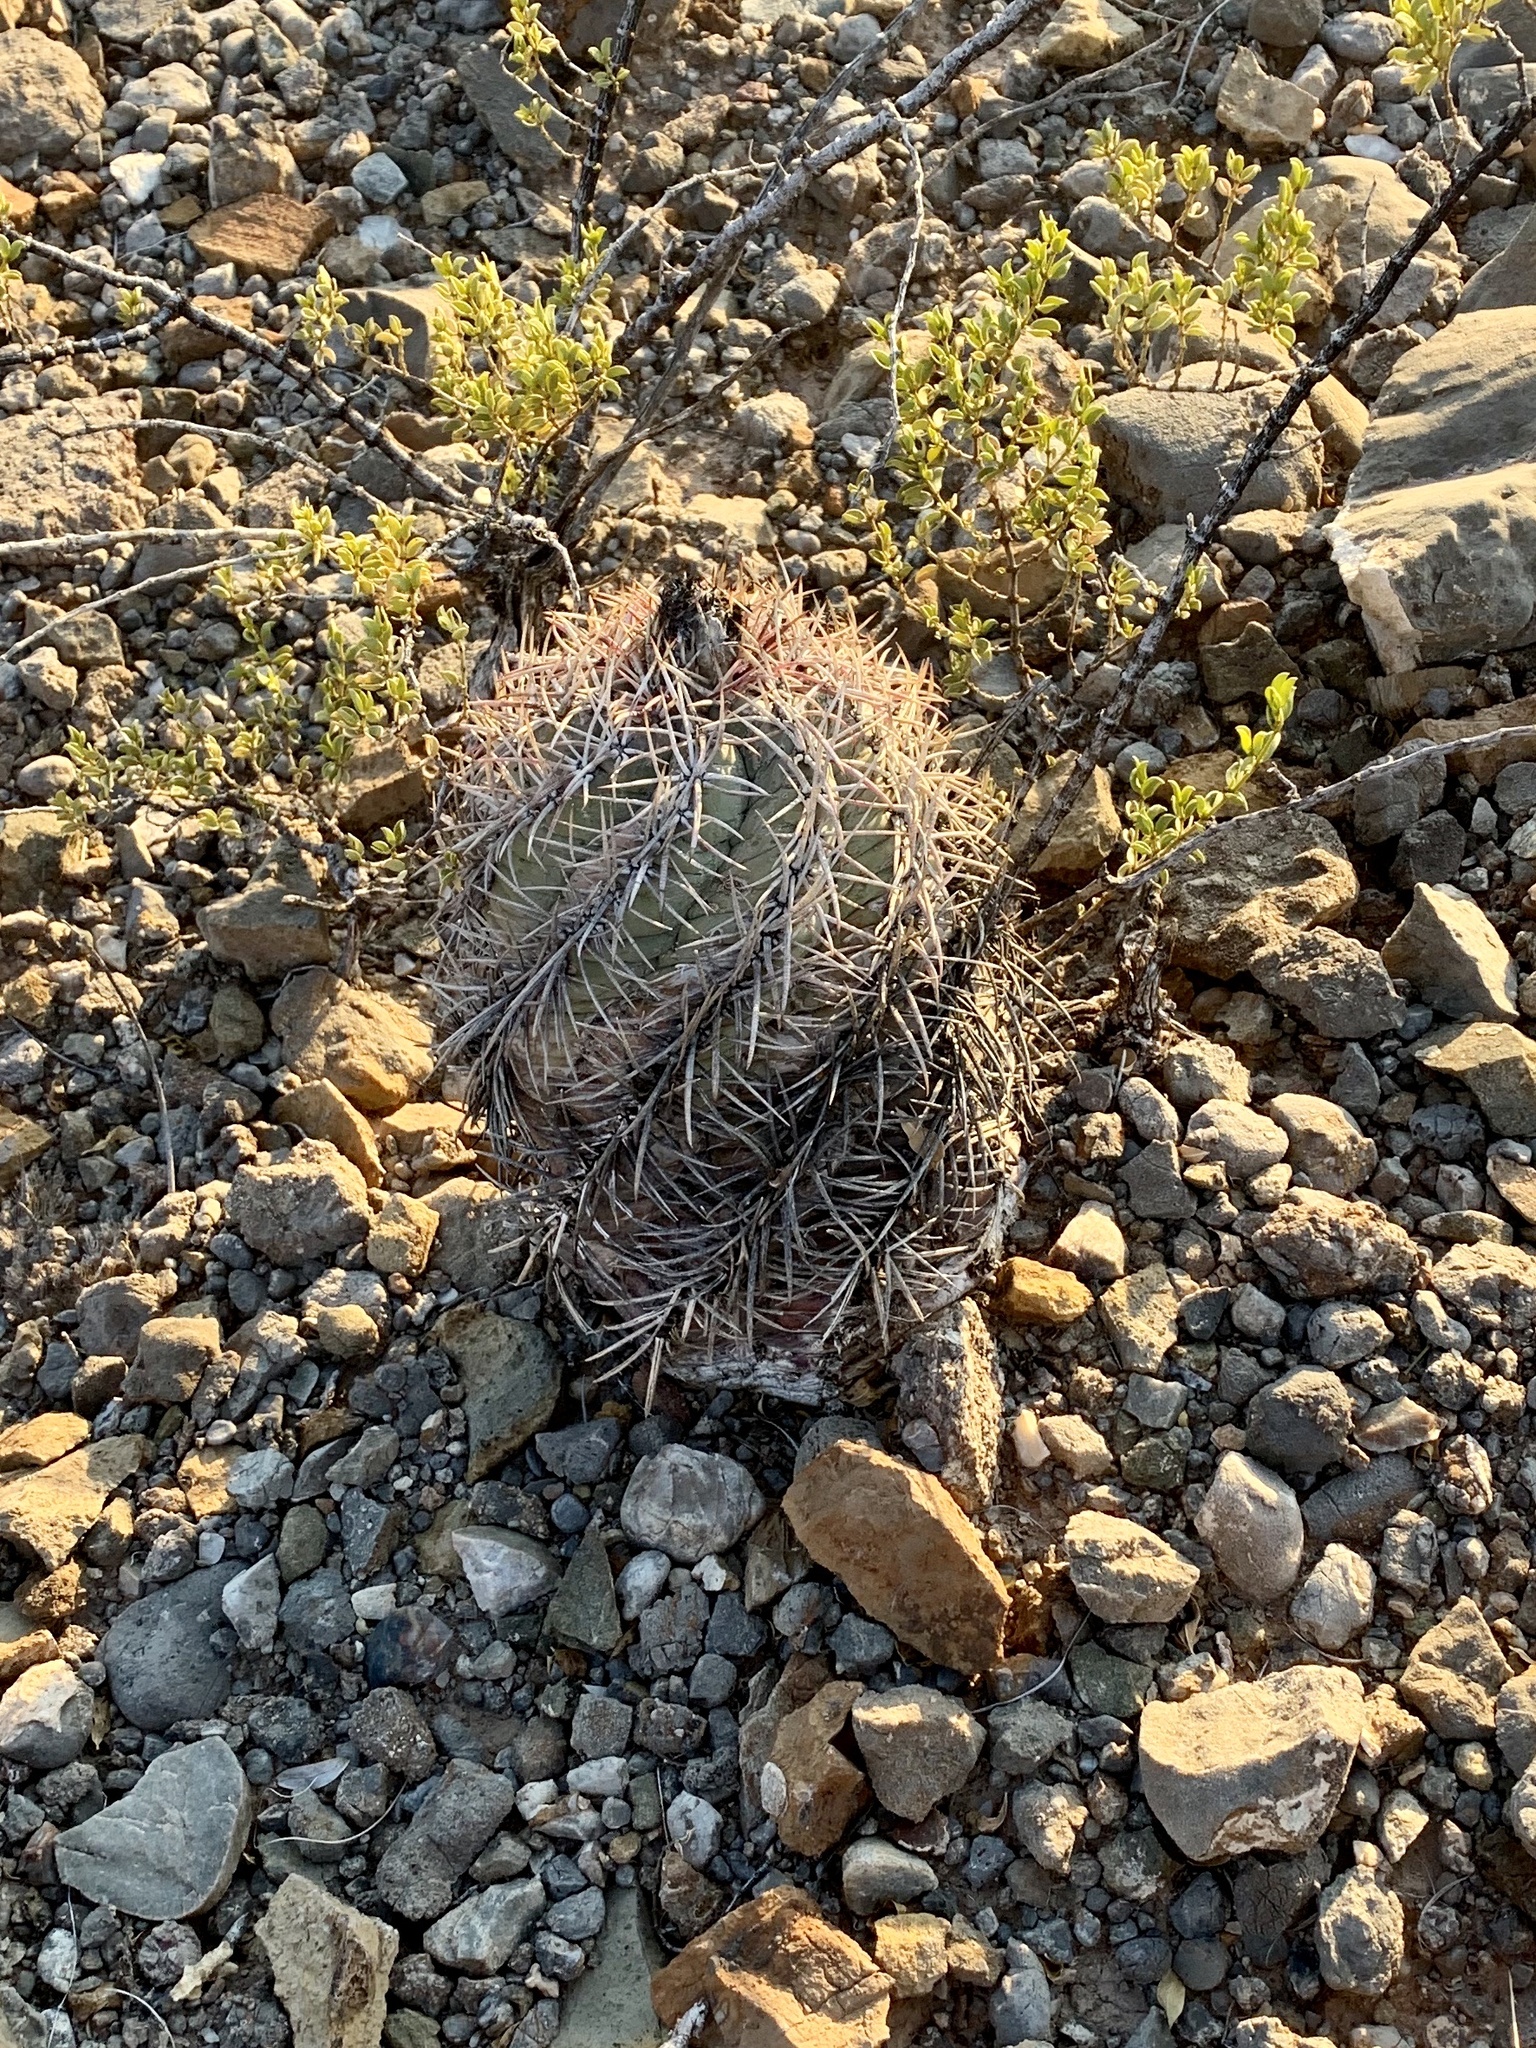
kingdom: Plantae
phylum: Tracheophyta
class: Magnoliopsida
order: Caryophyllales
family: Cactaceae
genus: Echinocactus
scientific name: Echinocactus horizonthalonius
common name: Devilshead
